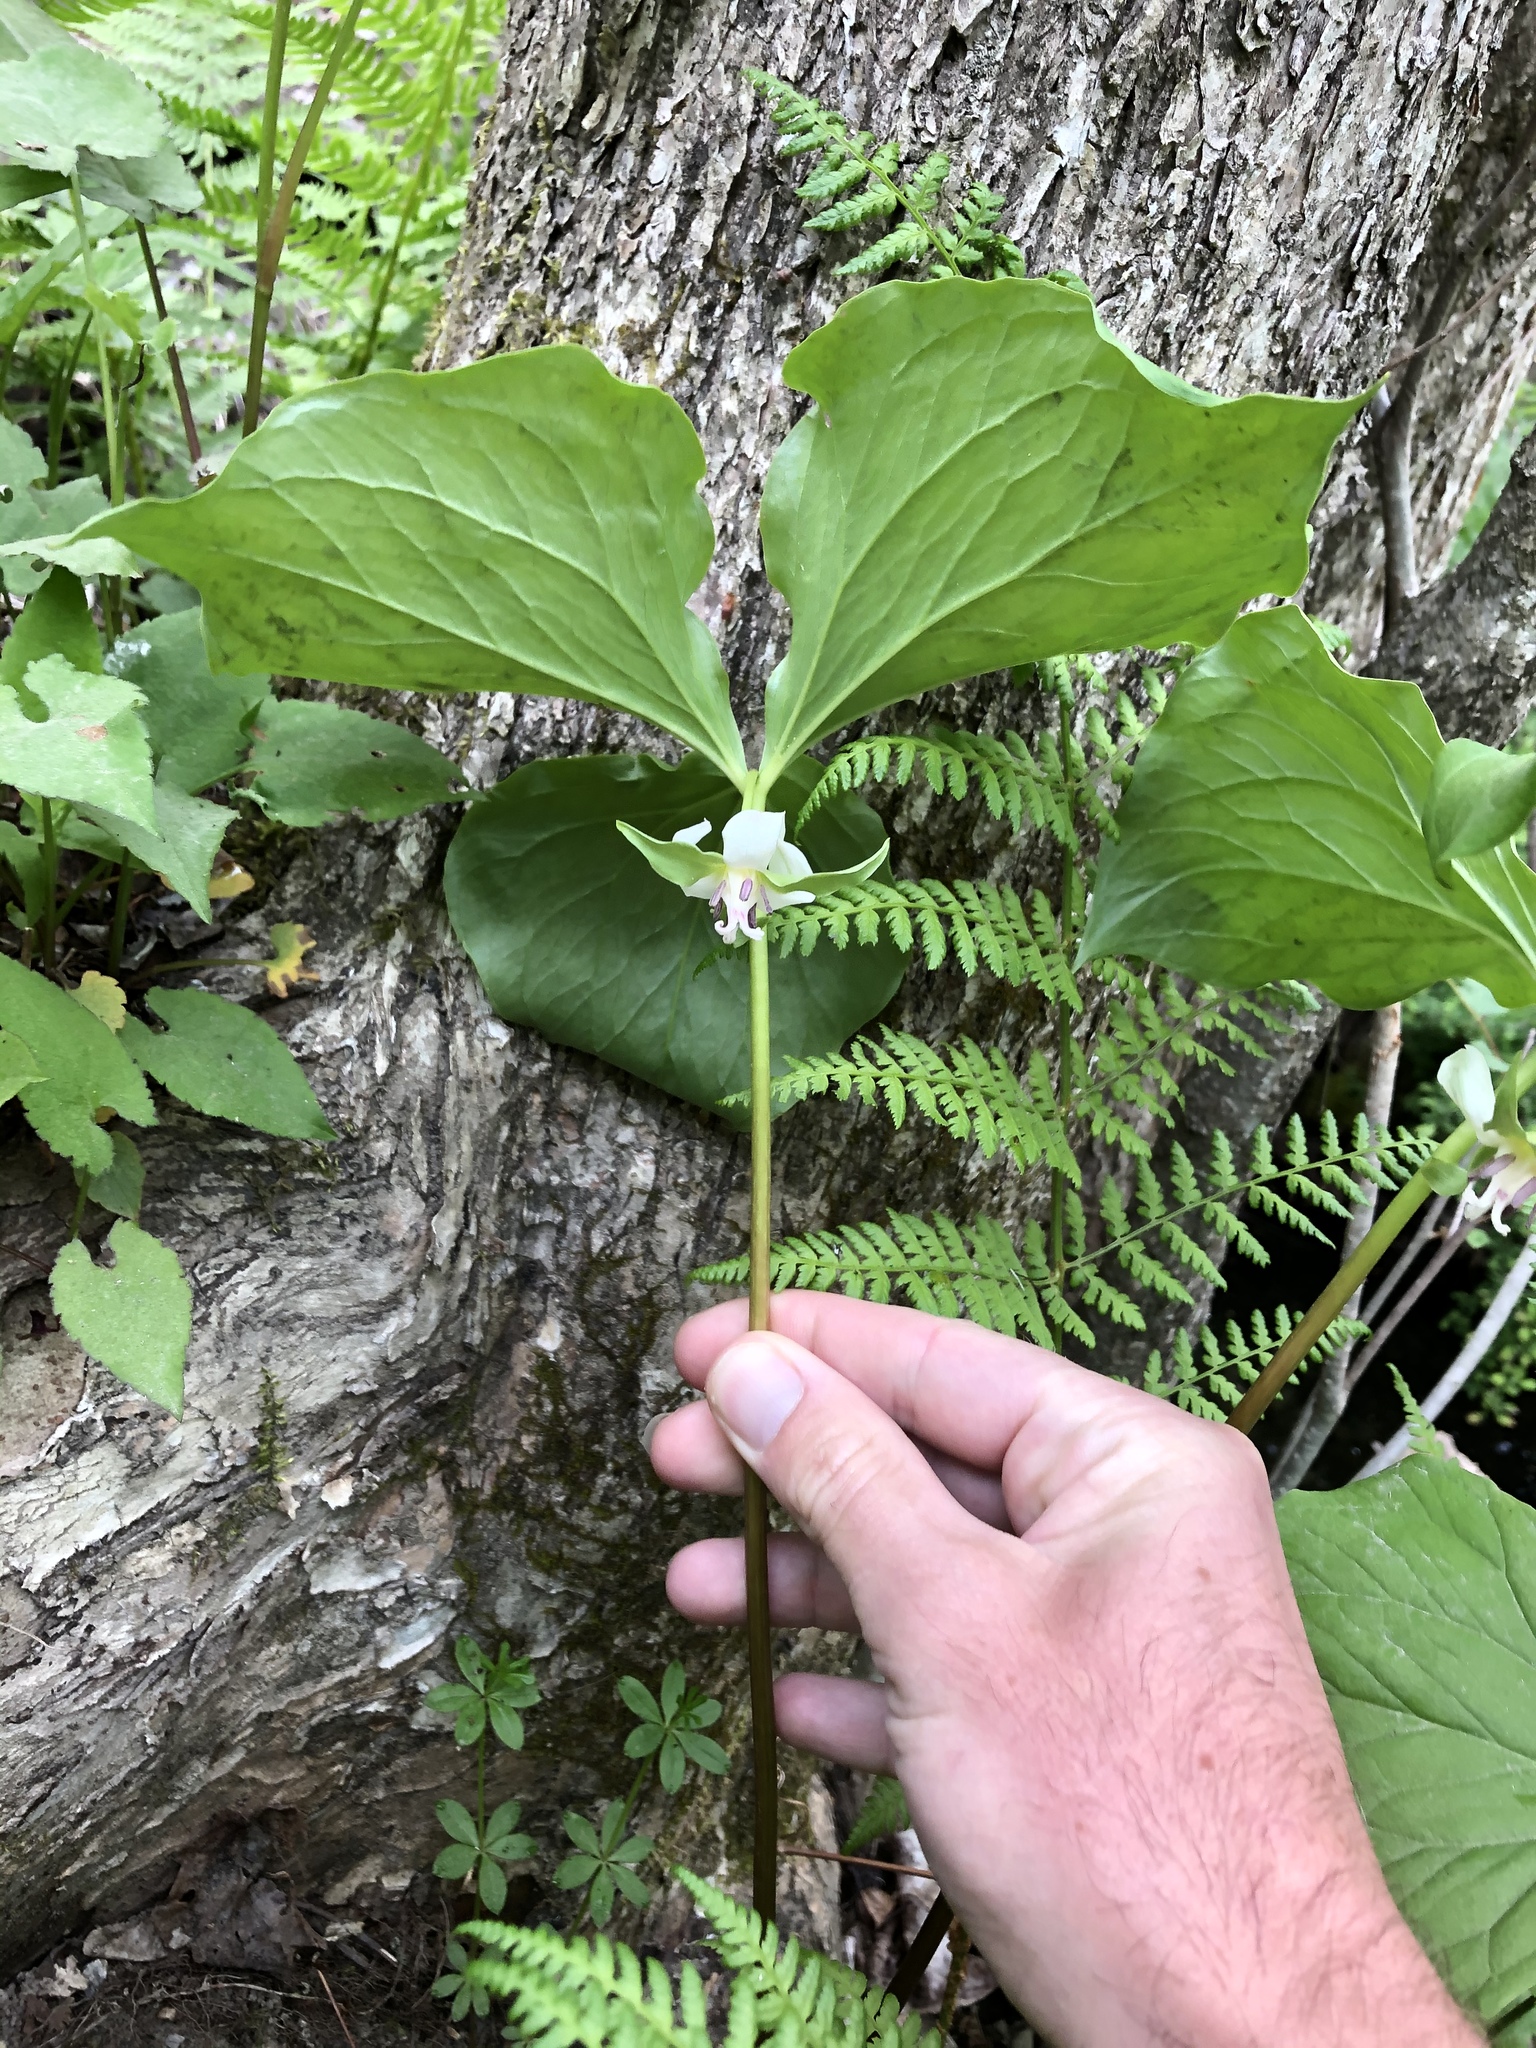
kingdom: Plantae
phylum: Tracheophyta
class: Liliopsida
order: Liliales
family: Melanthiaceae
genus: Trillium
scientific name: Trillium cernuum
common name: Nodding trillium
